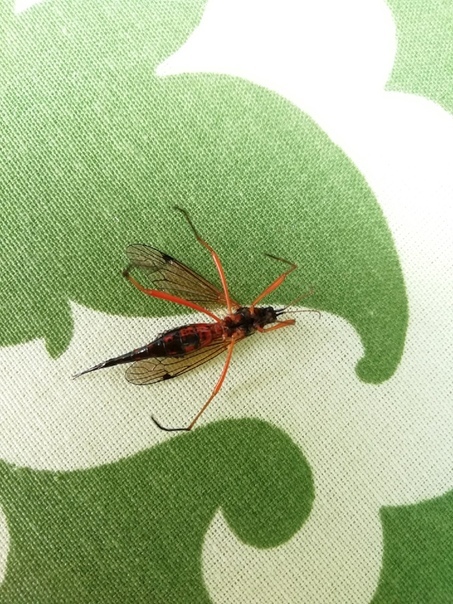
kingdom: Animalia
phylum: Arthropoda
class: Insecta
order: Diptera
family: Tipulidae
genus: Tanyptera
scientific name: Tanyptera atrata
